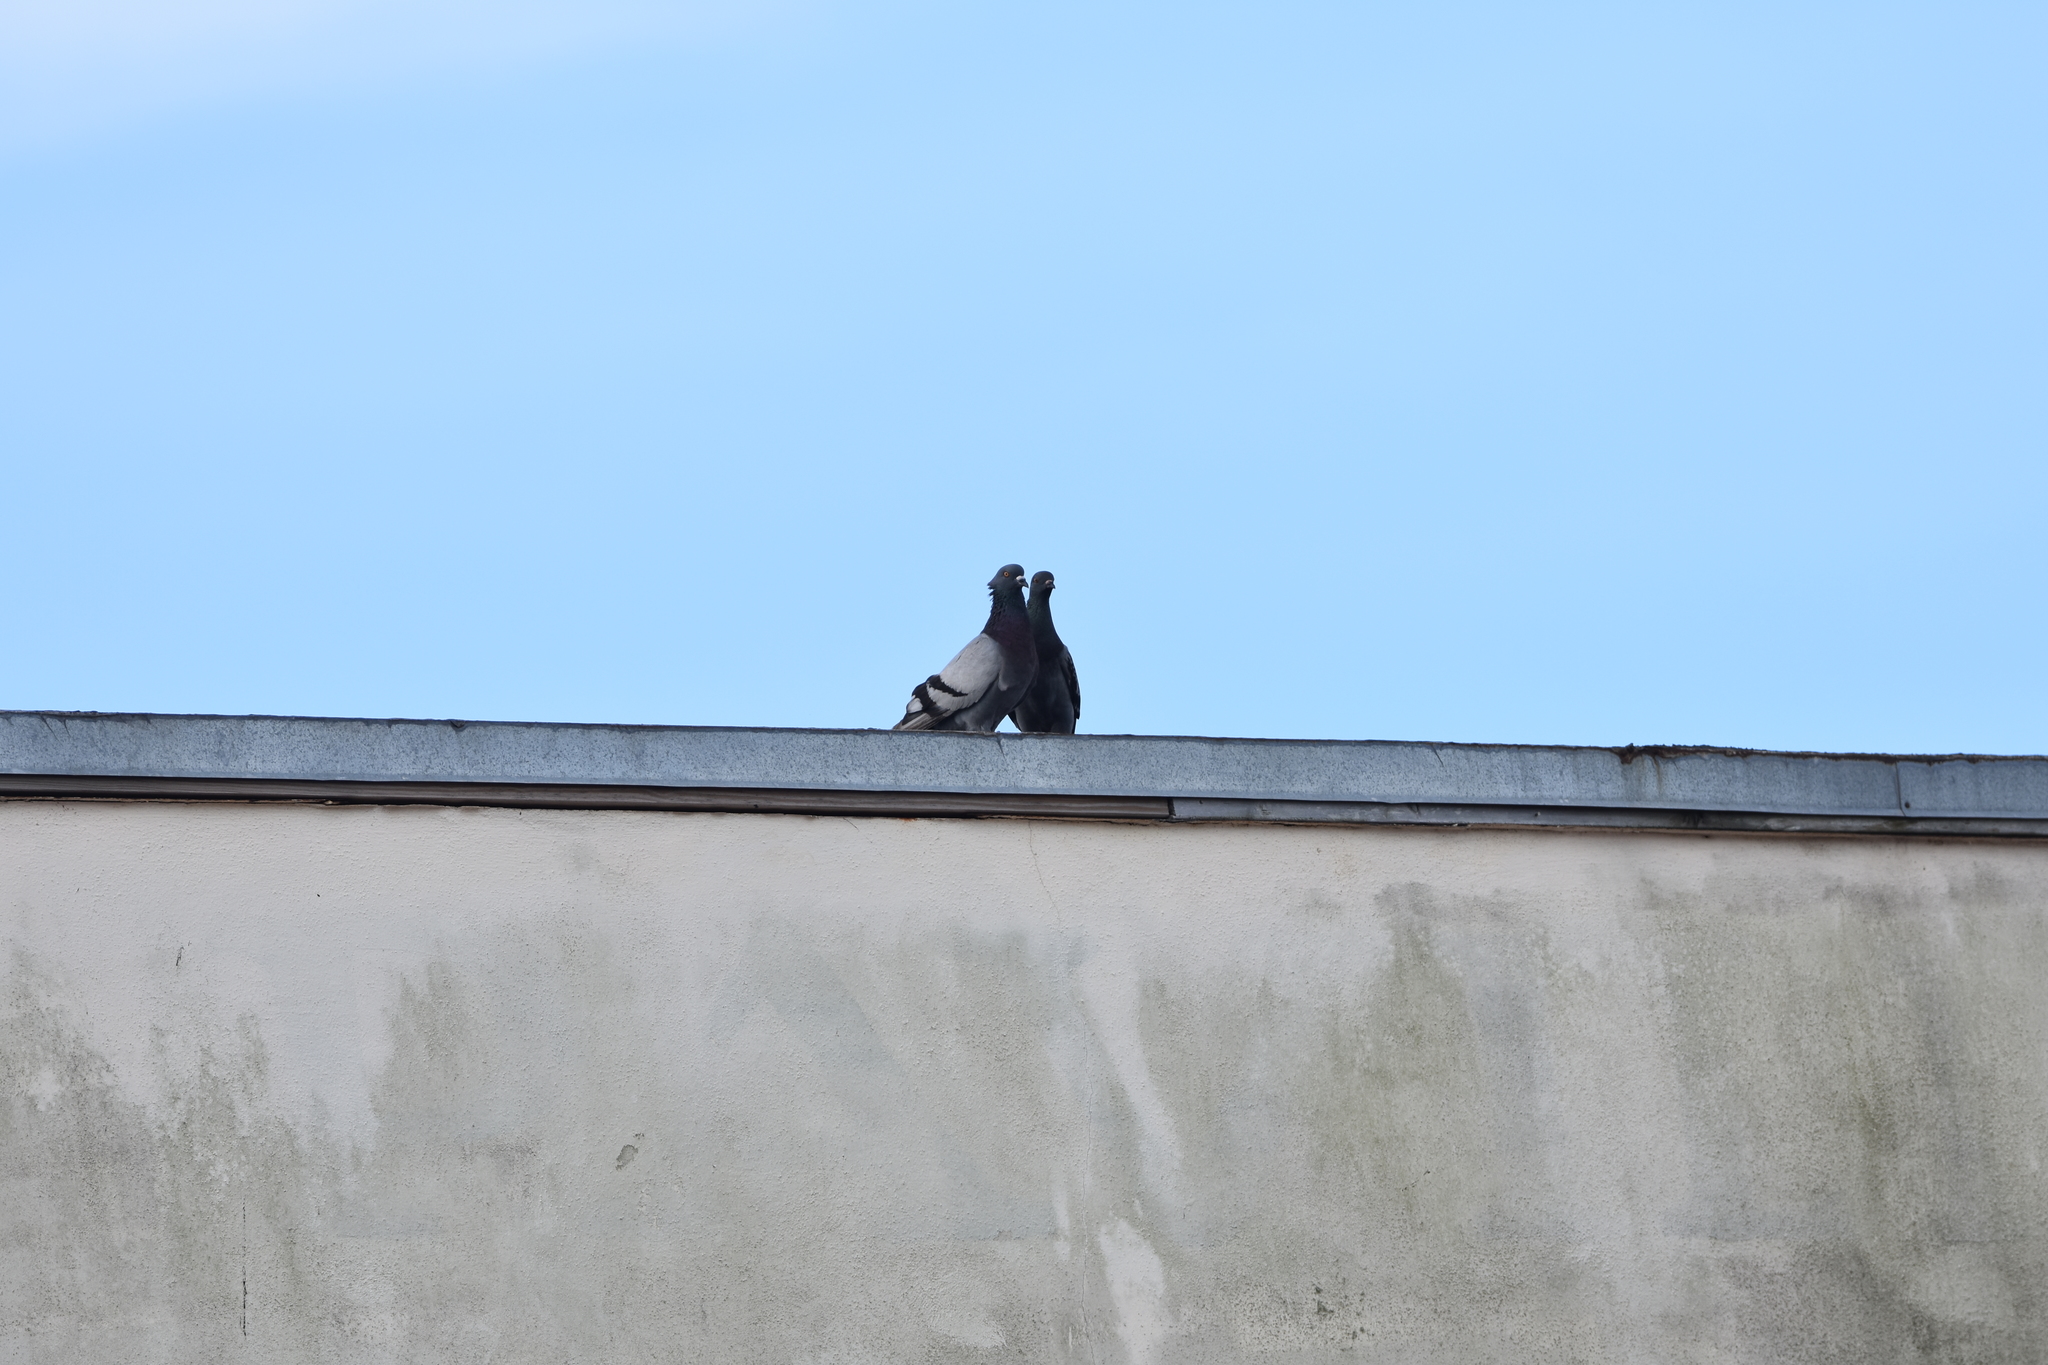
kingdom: Animalia
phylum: Chordata
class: Aves
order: Columbiformes
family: Columbidae
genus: Columba
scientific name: Columba livia
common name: Rock pigeon
